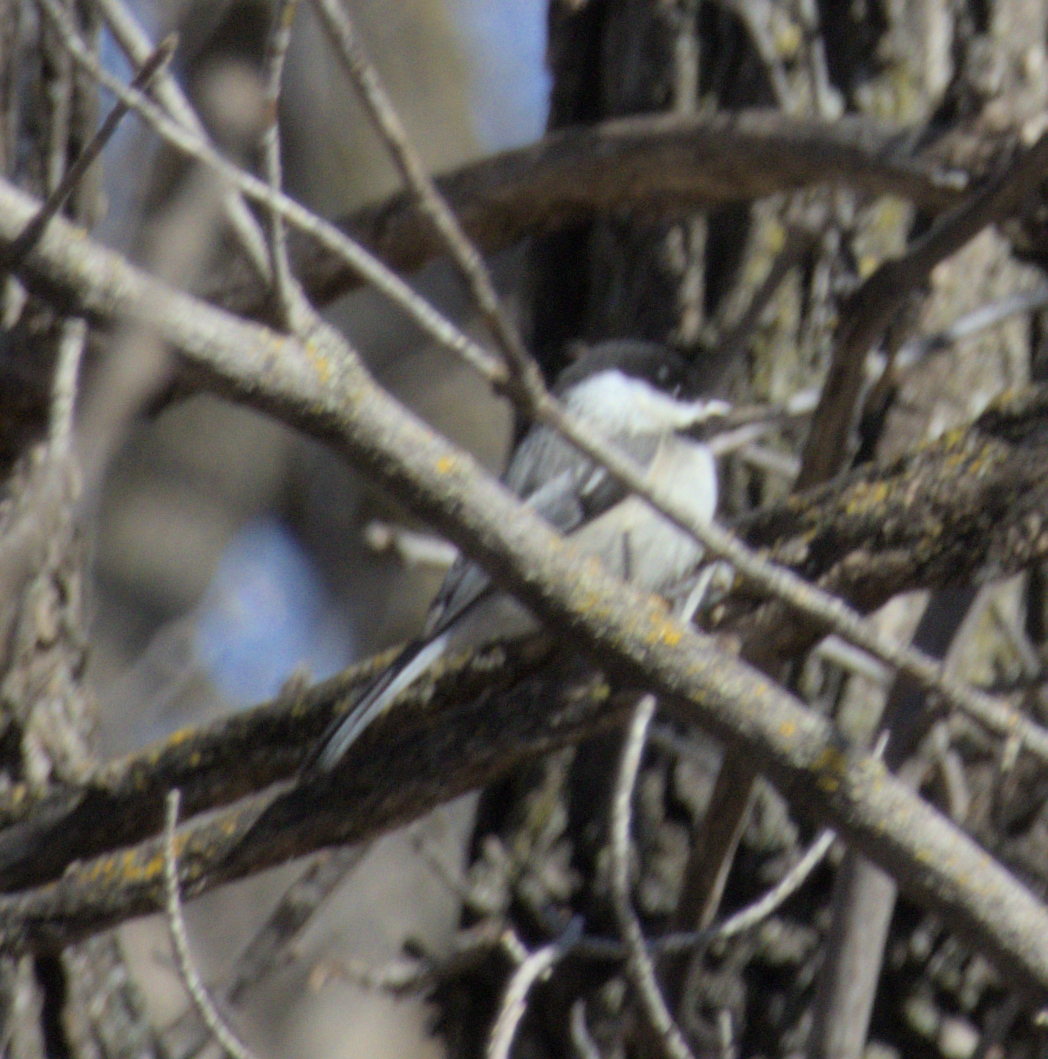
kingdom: Animalia
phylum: Chordata
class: Aves
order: Passeriformes
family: Paridae
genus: Poecile
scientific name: Poecile atricapillus
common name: Black-capped chickadee
